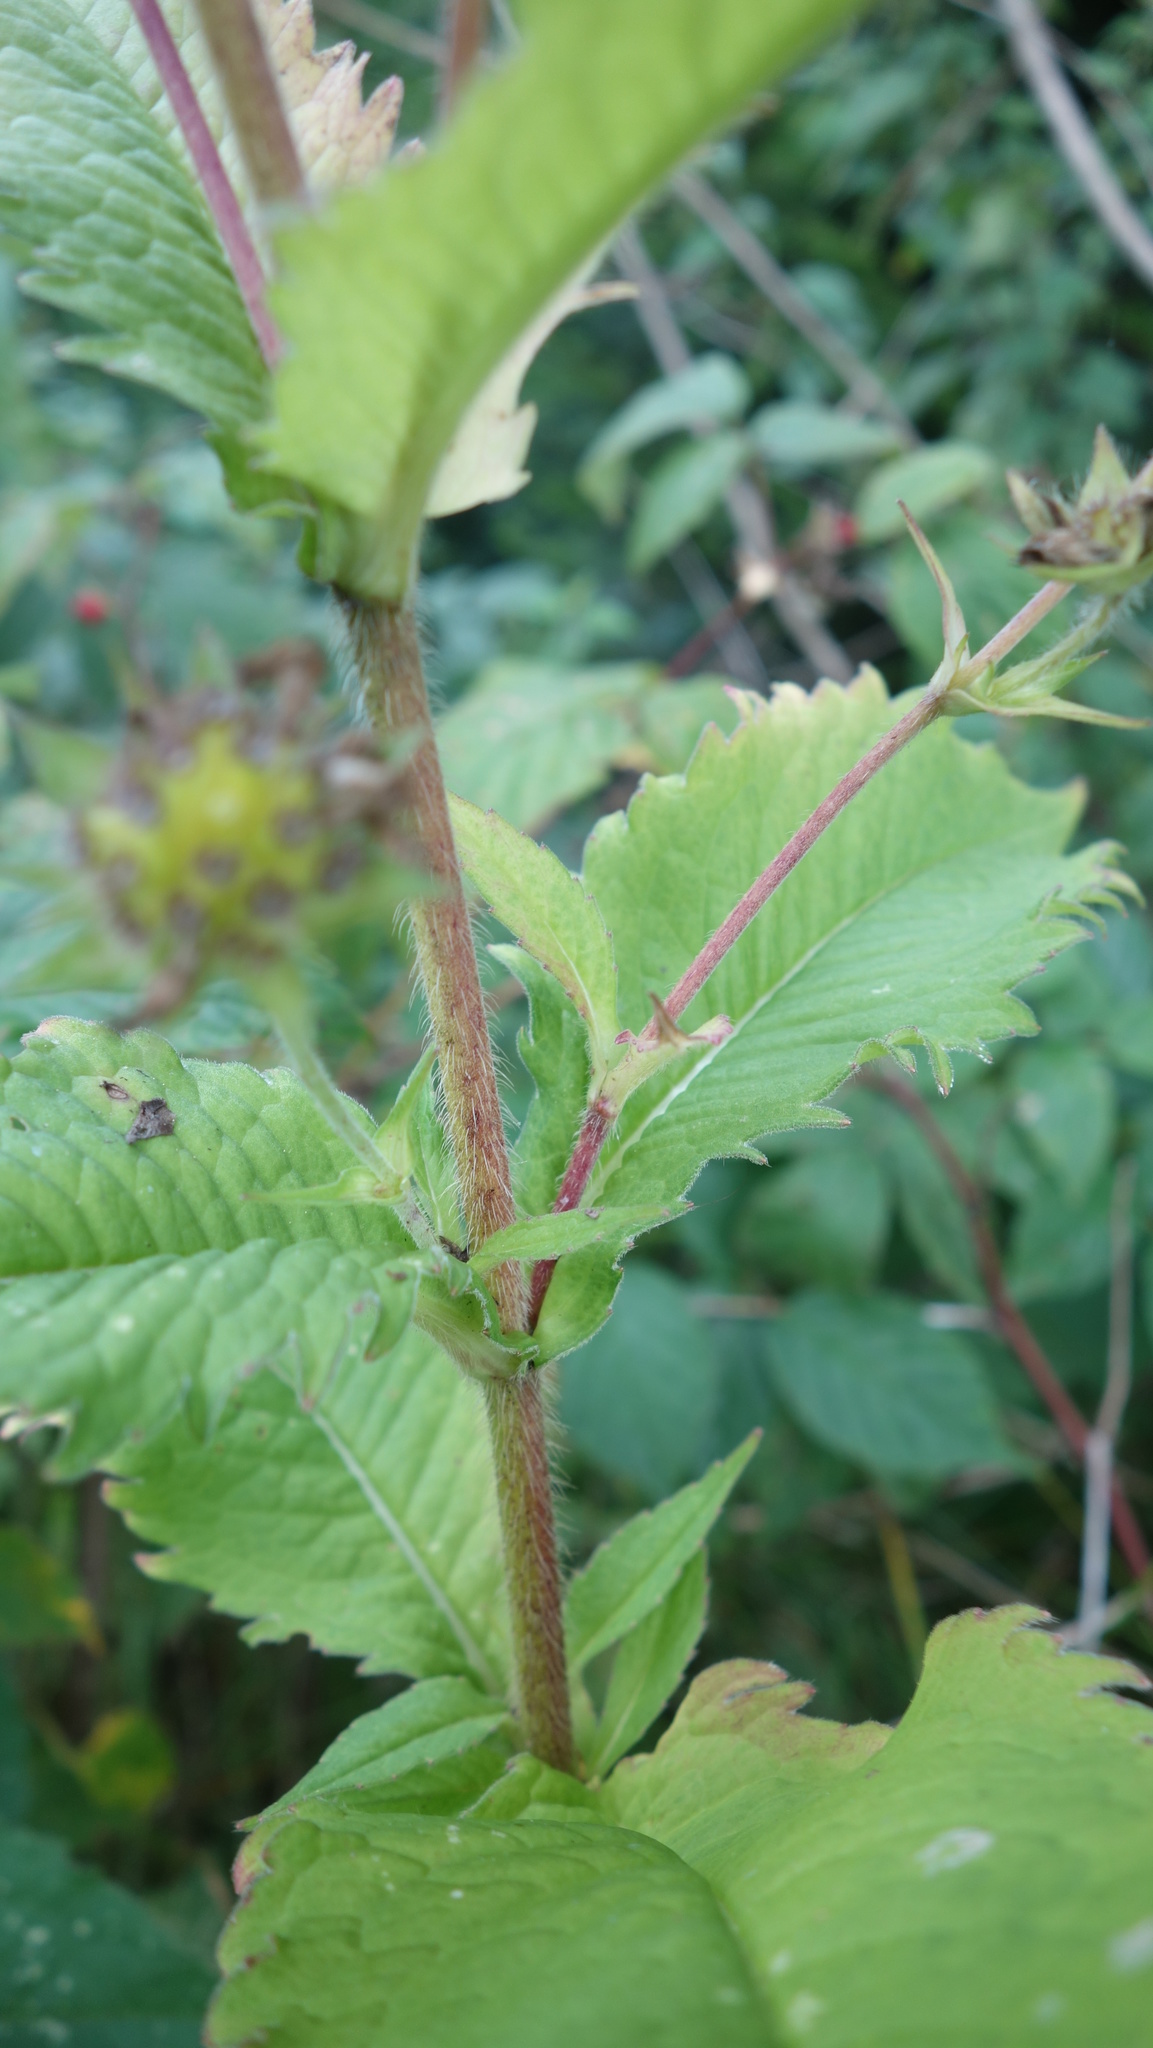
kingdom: Plantae
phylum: Tracheophyta
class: Magnoliopsida
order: Dipsacales
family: Caprifoliaceae
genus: Knautia
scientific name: Knautia dipsacifolia
